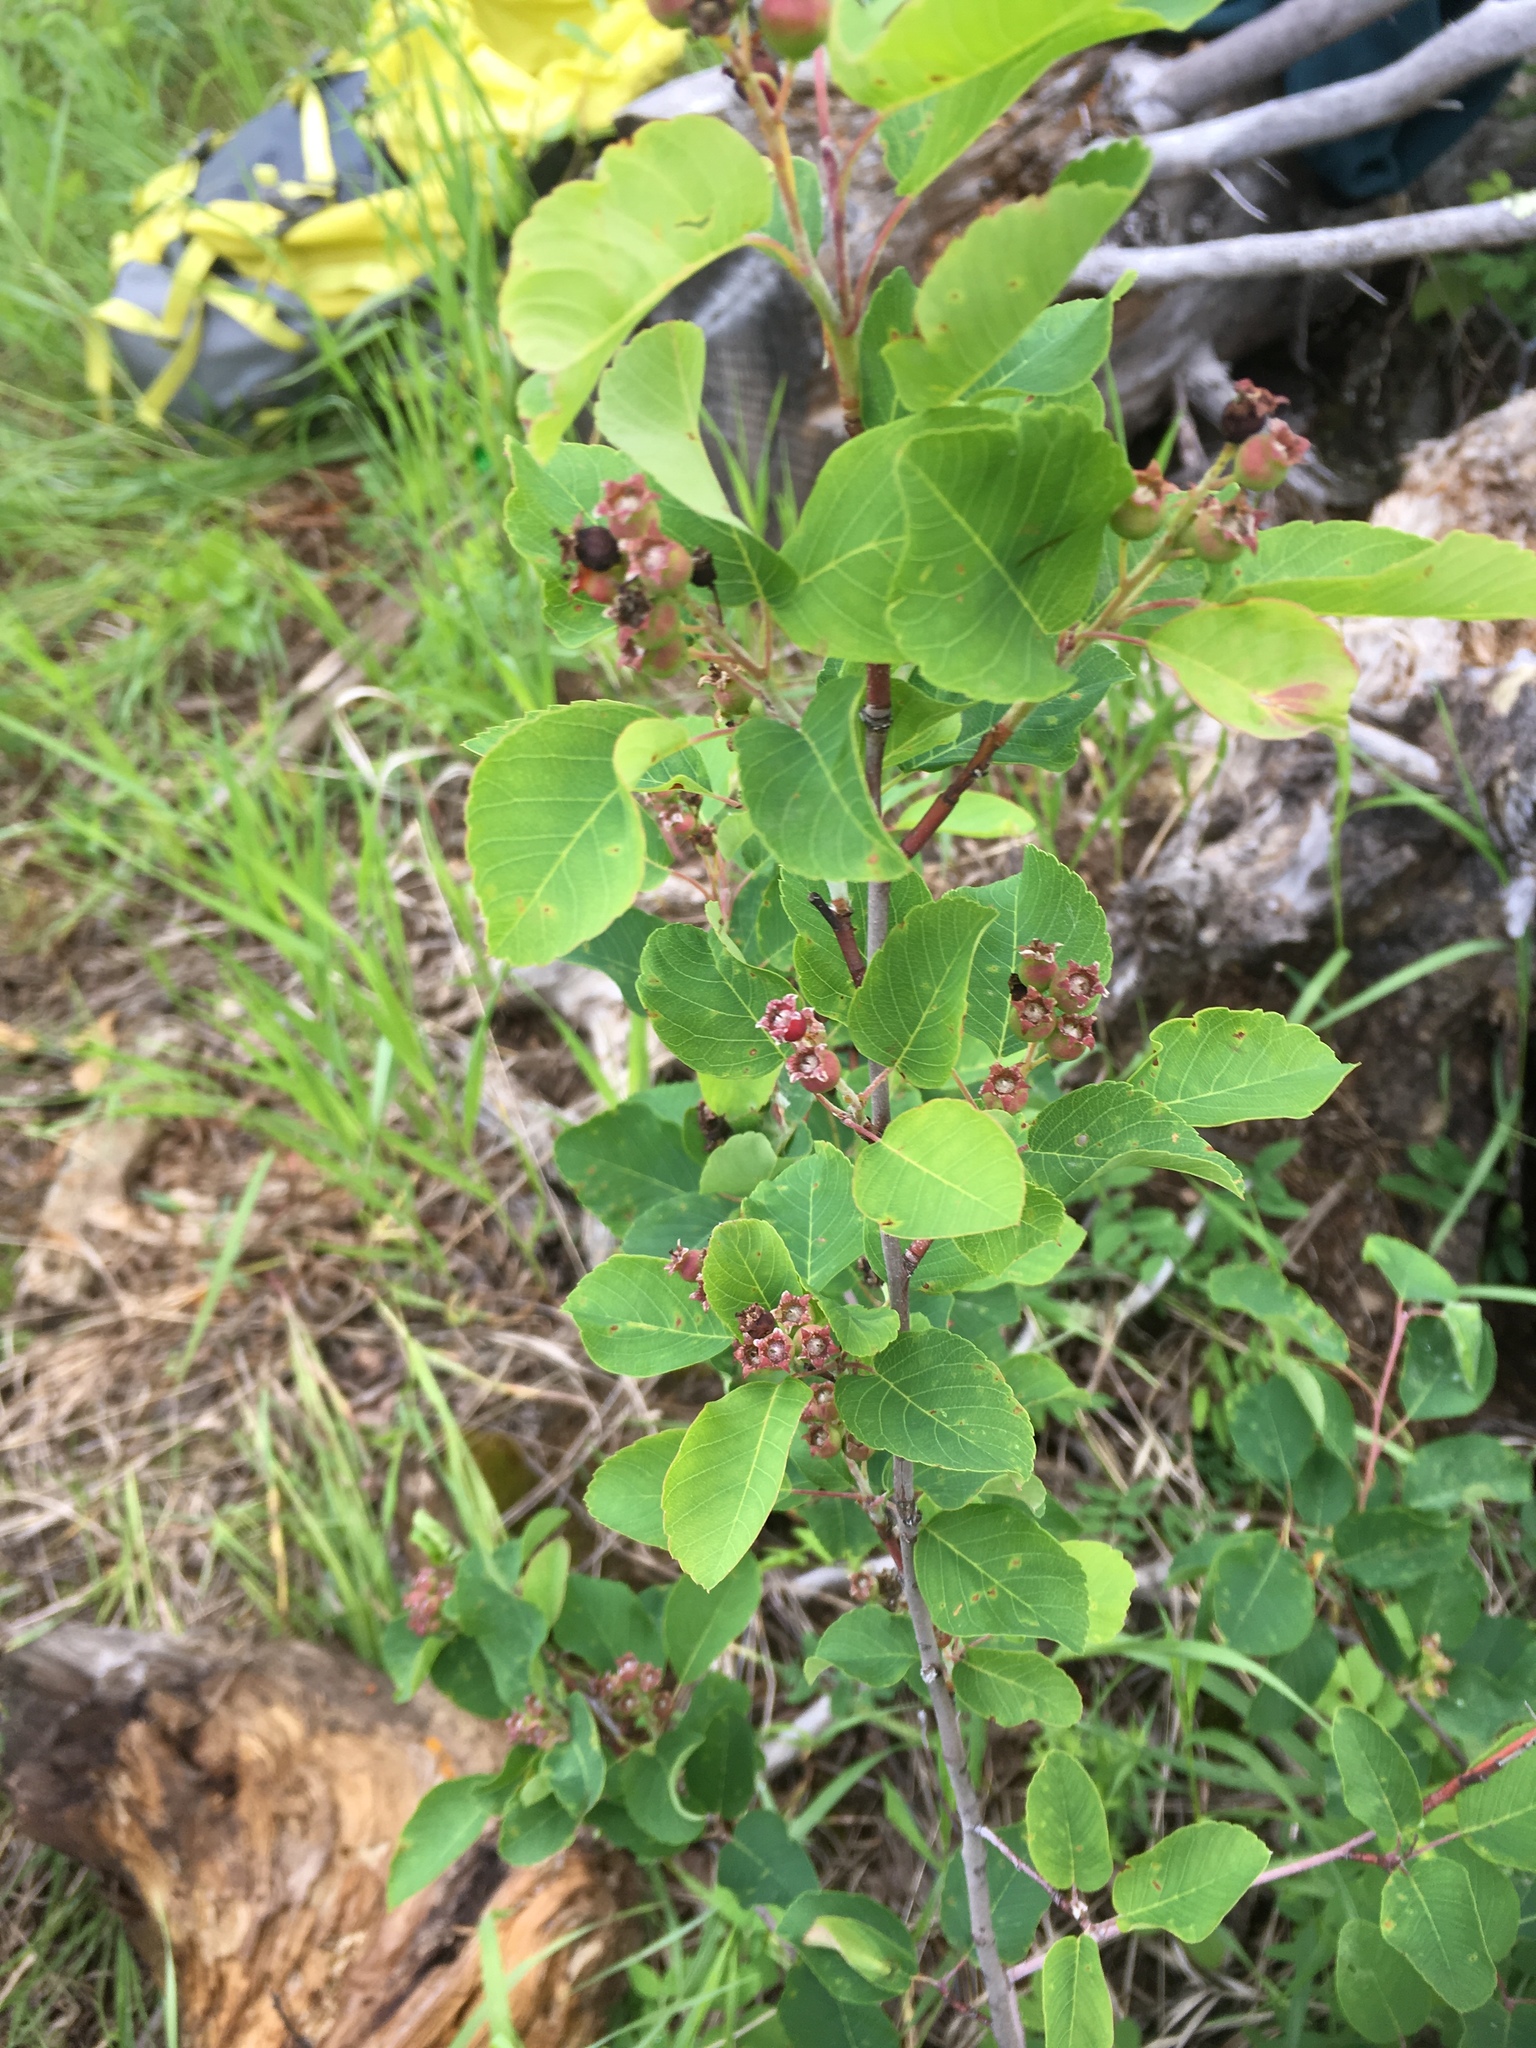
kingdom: Plantae
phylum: Tracheophyta
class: Magnoliopsida
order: Rosales
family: Rosaceae
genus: Amelanchier
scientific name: Amelanchier alnifolia
